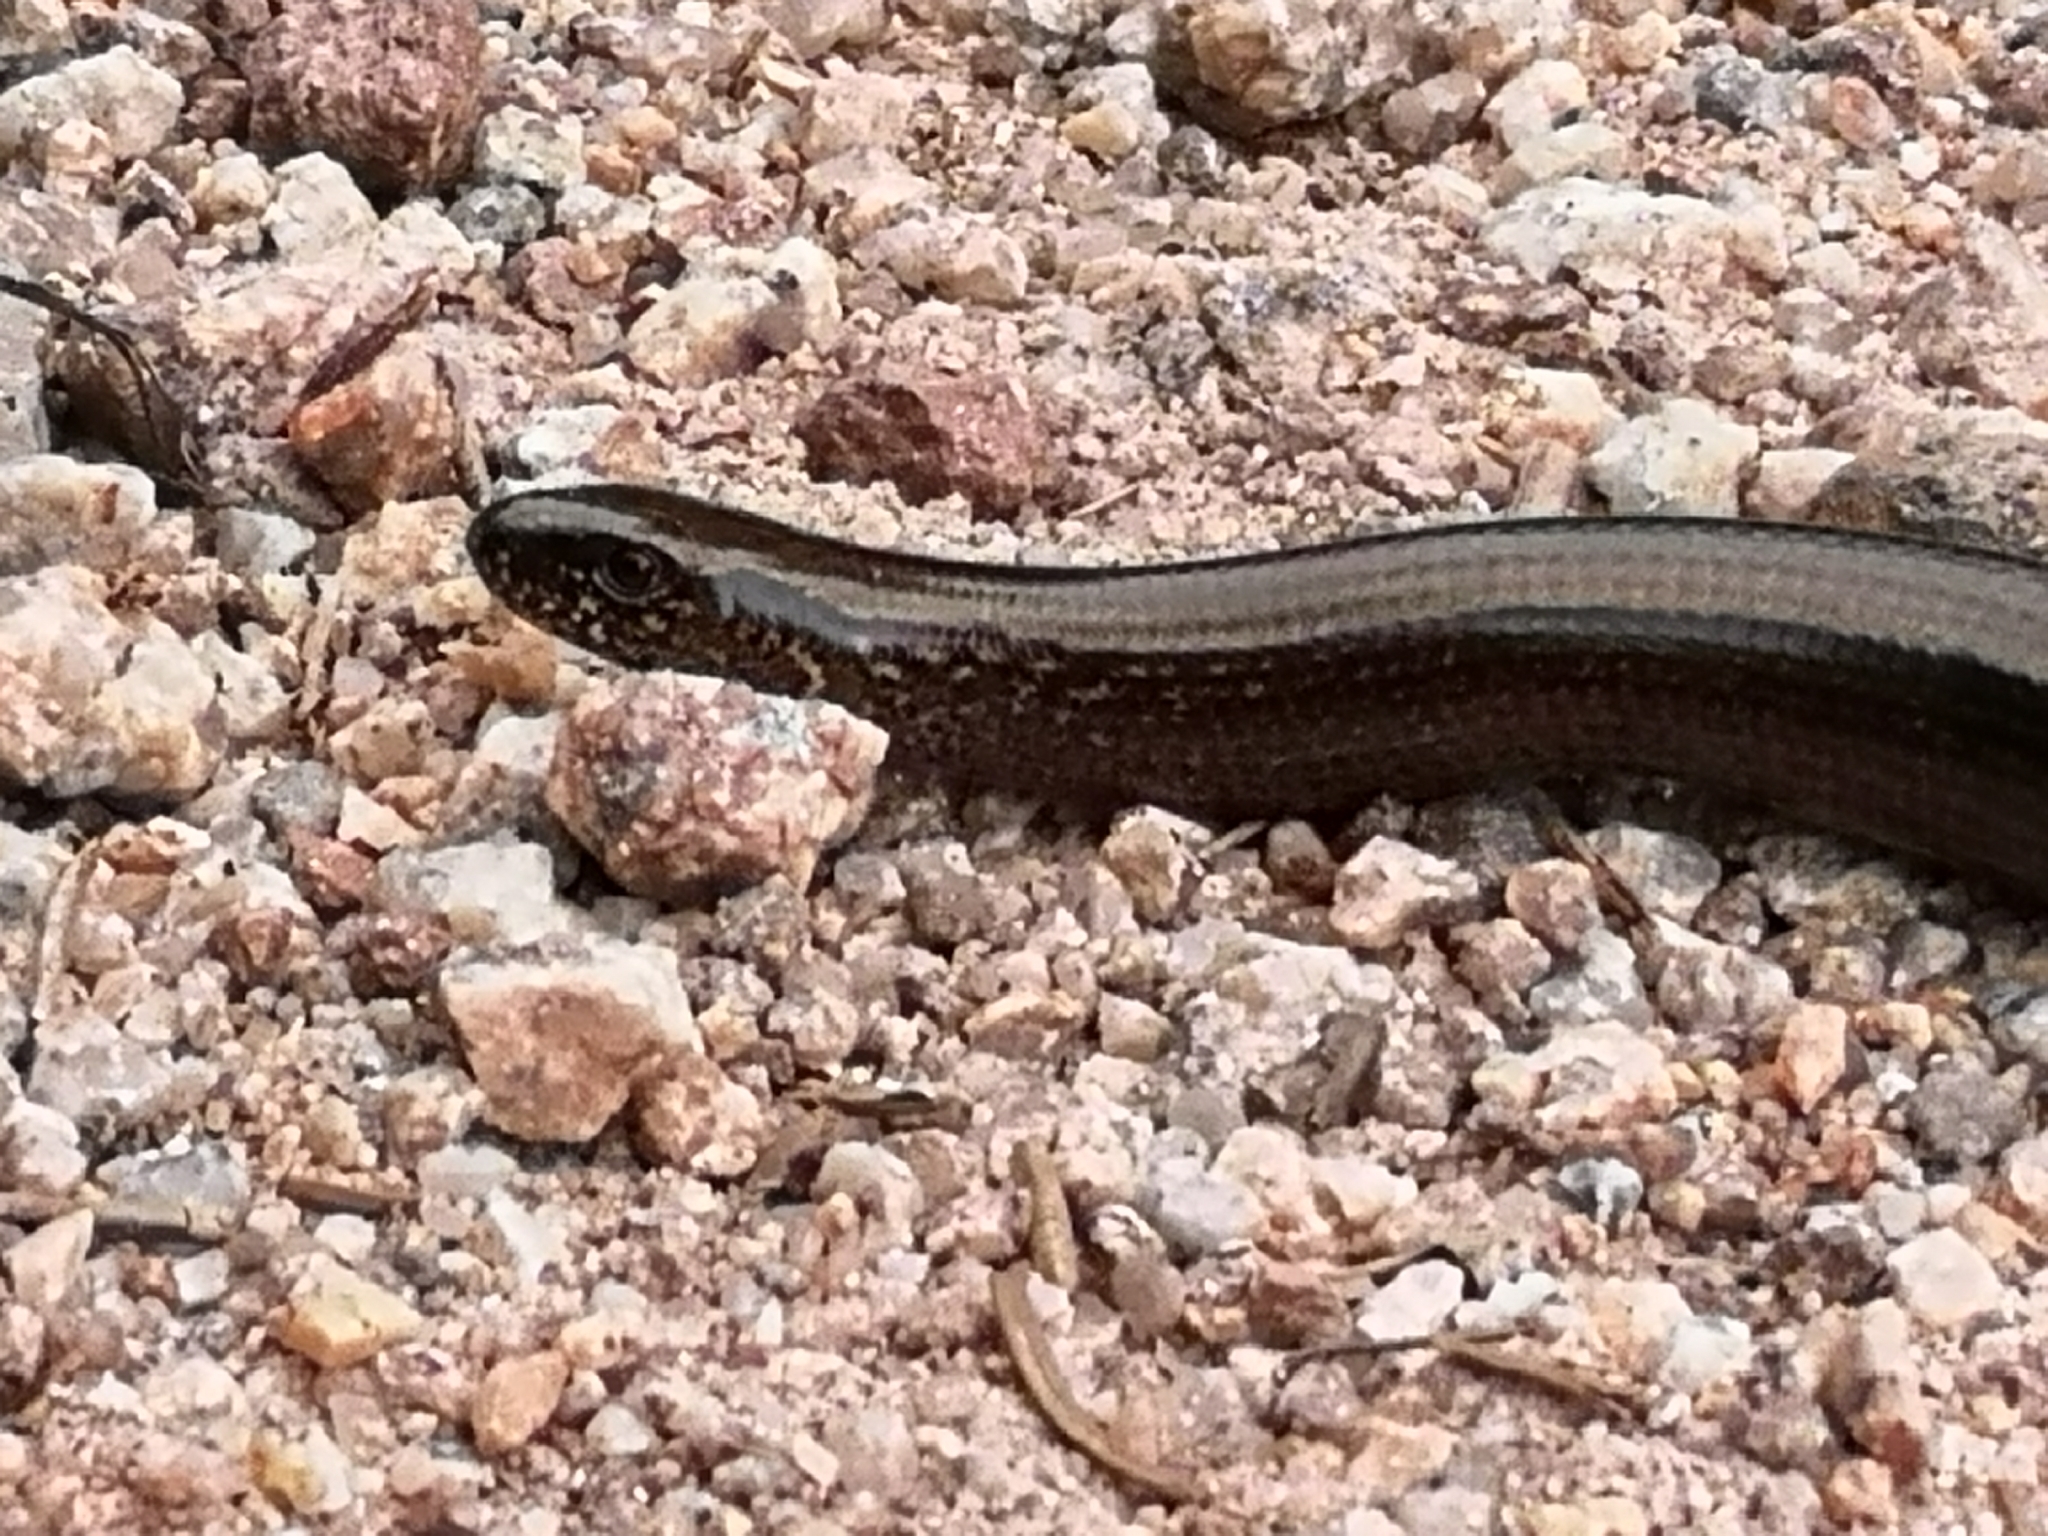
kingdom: Animalia
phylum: Chordata
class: Squamata
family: Anguidae
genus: Anguis
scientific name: Anguis fragilis
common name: Slow worm
